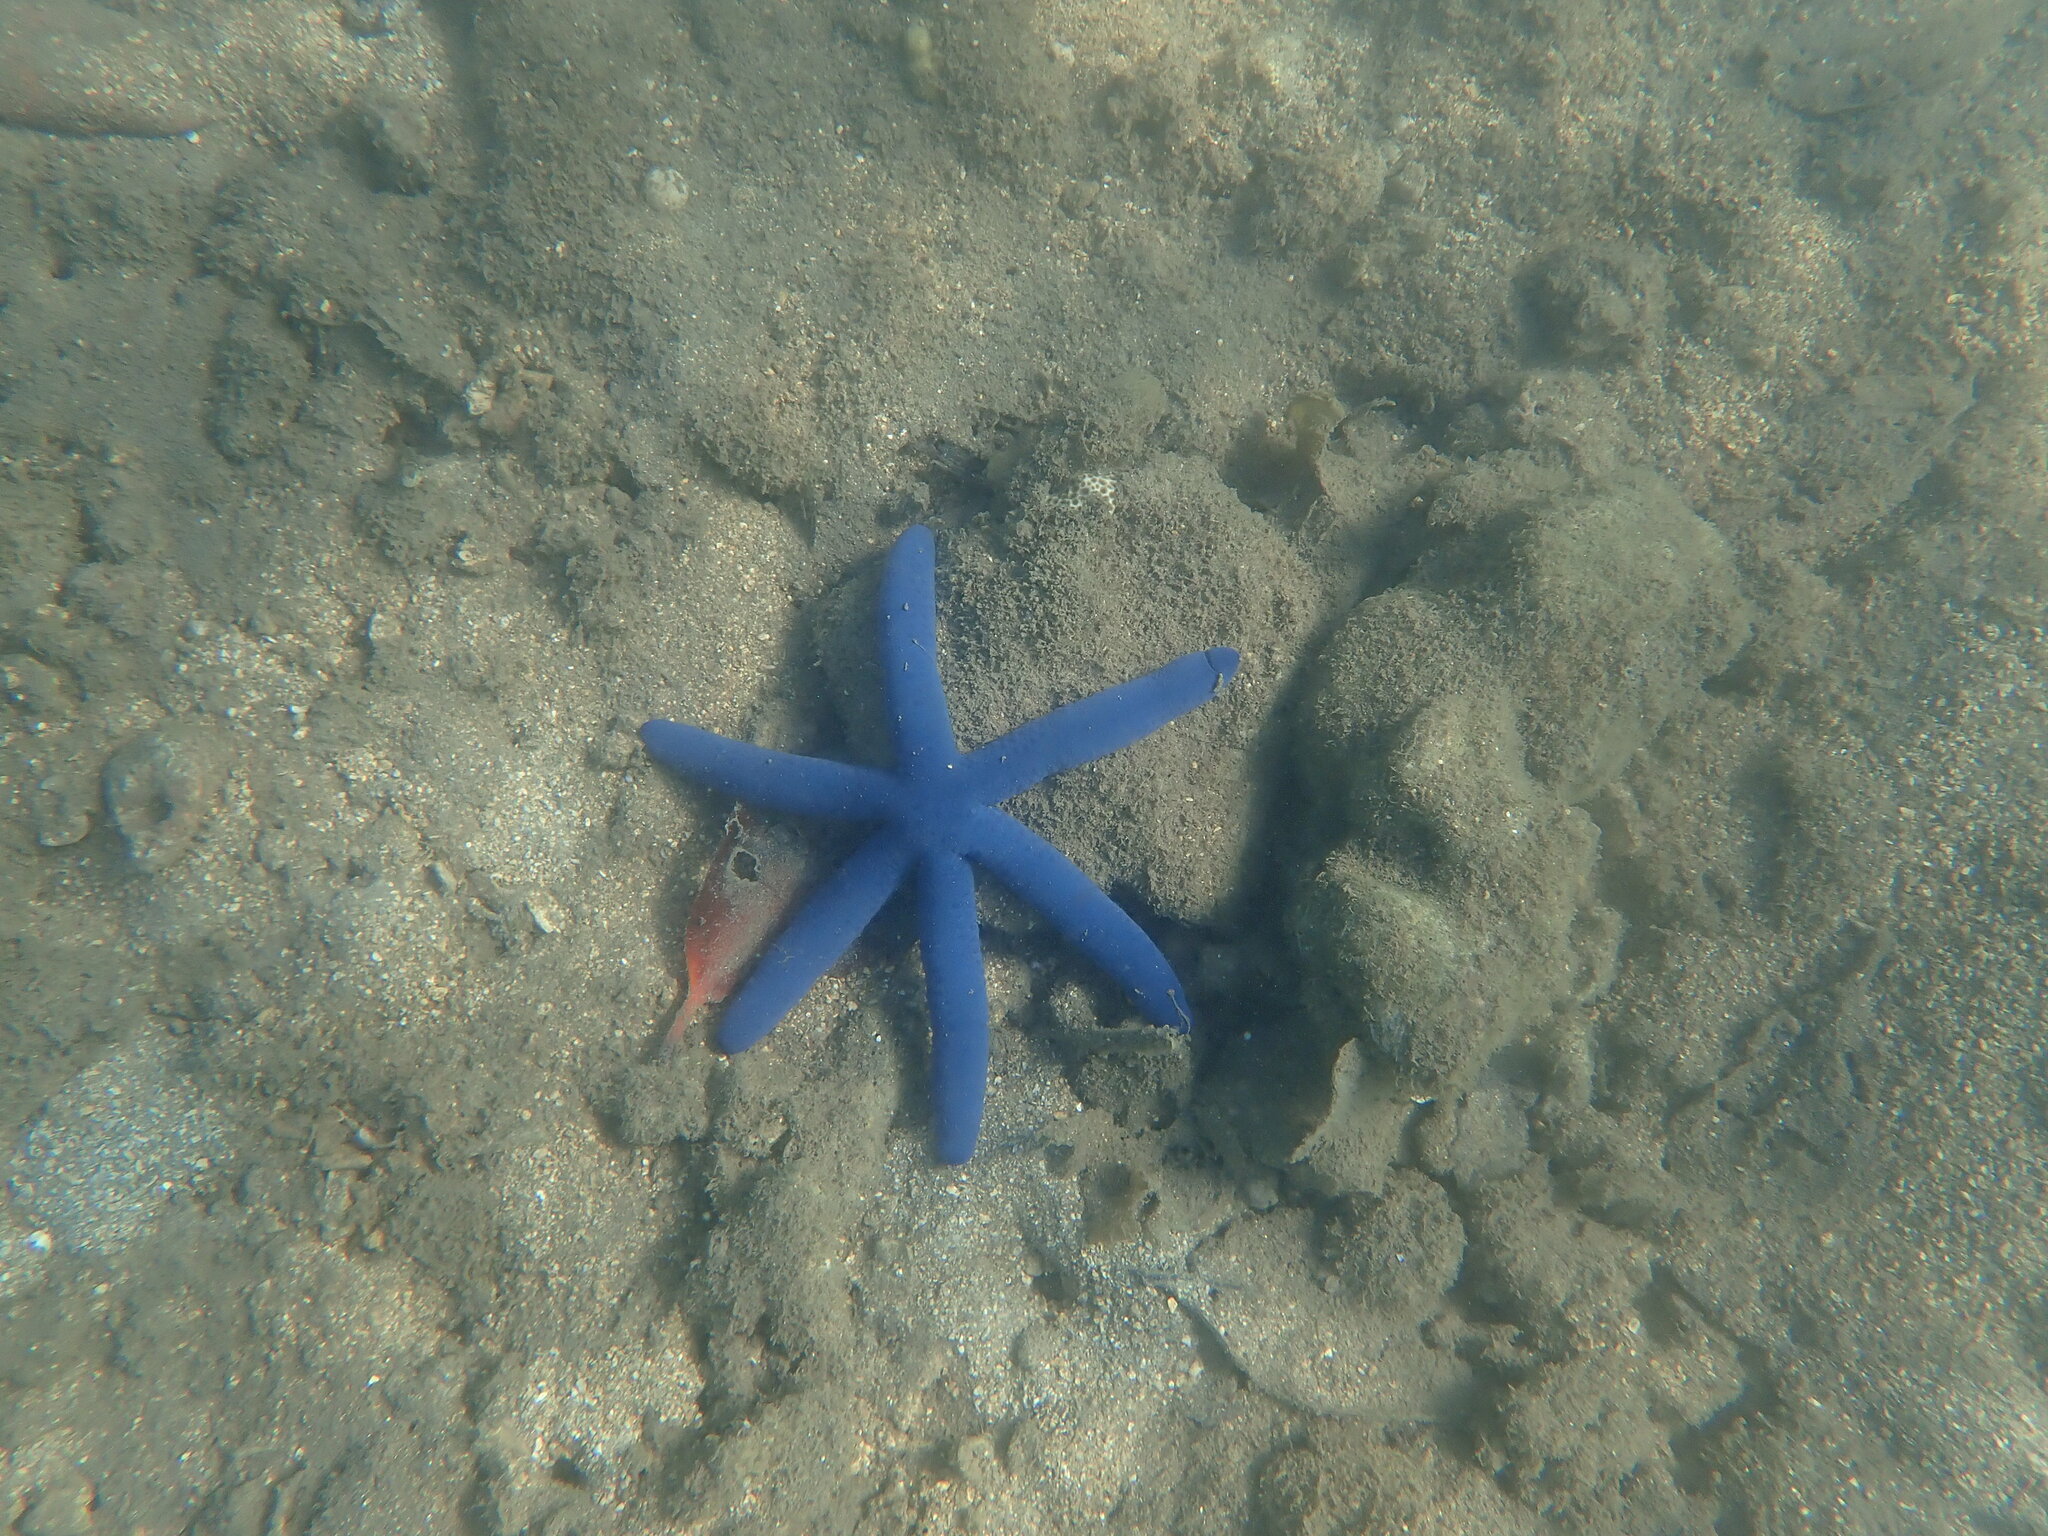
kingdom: Animalia
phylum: Echinodermata
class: Asteroidea
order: Valvatida
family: Ophidiasteridae
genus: Linckia
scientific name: Linckia laevigata
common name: Azure sea star
